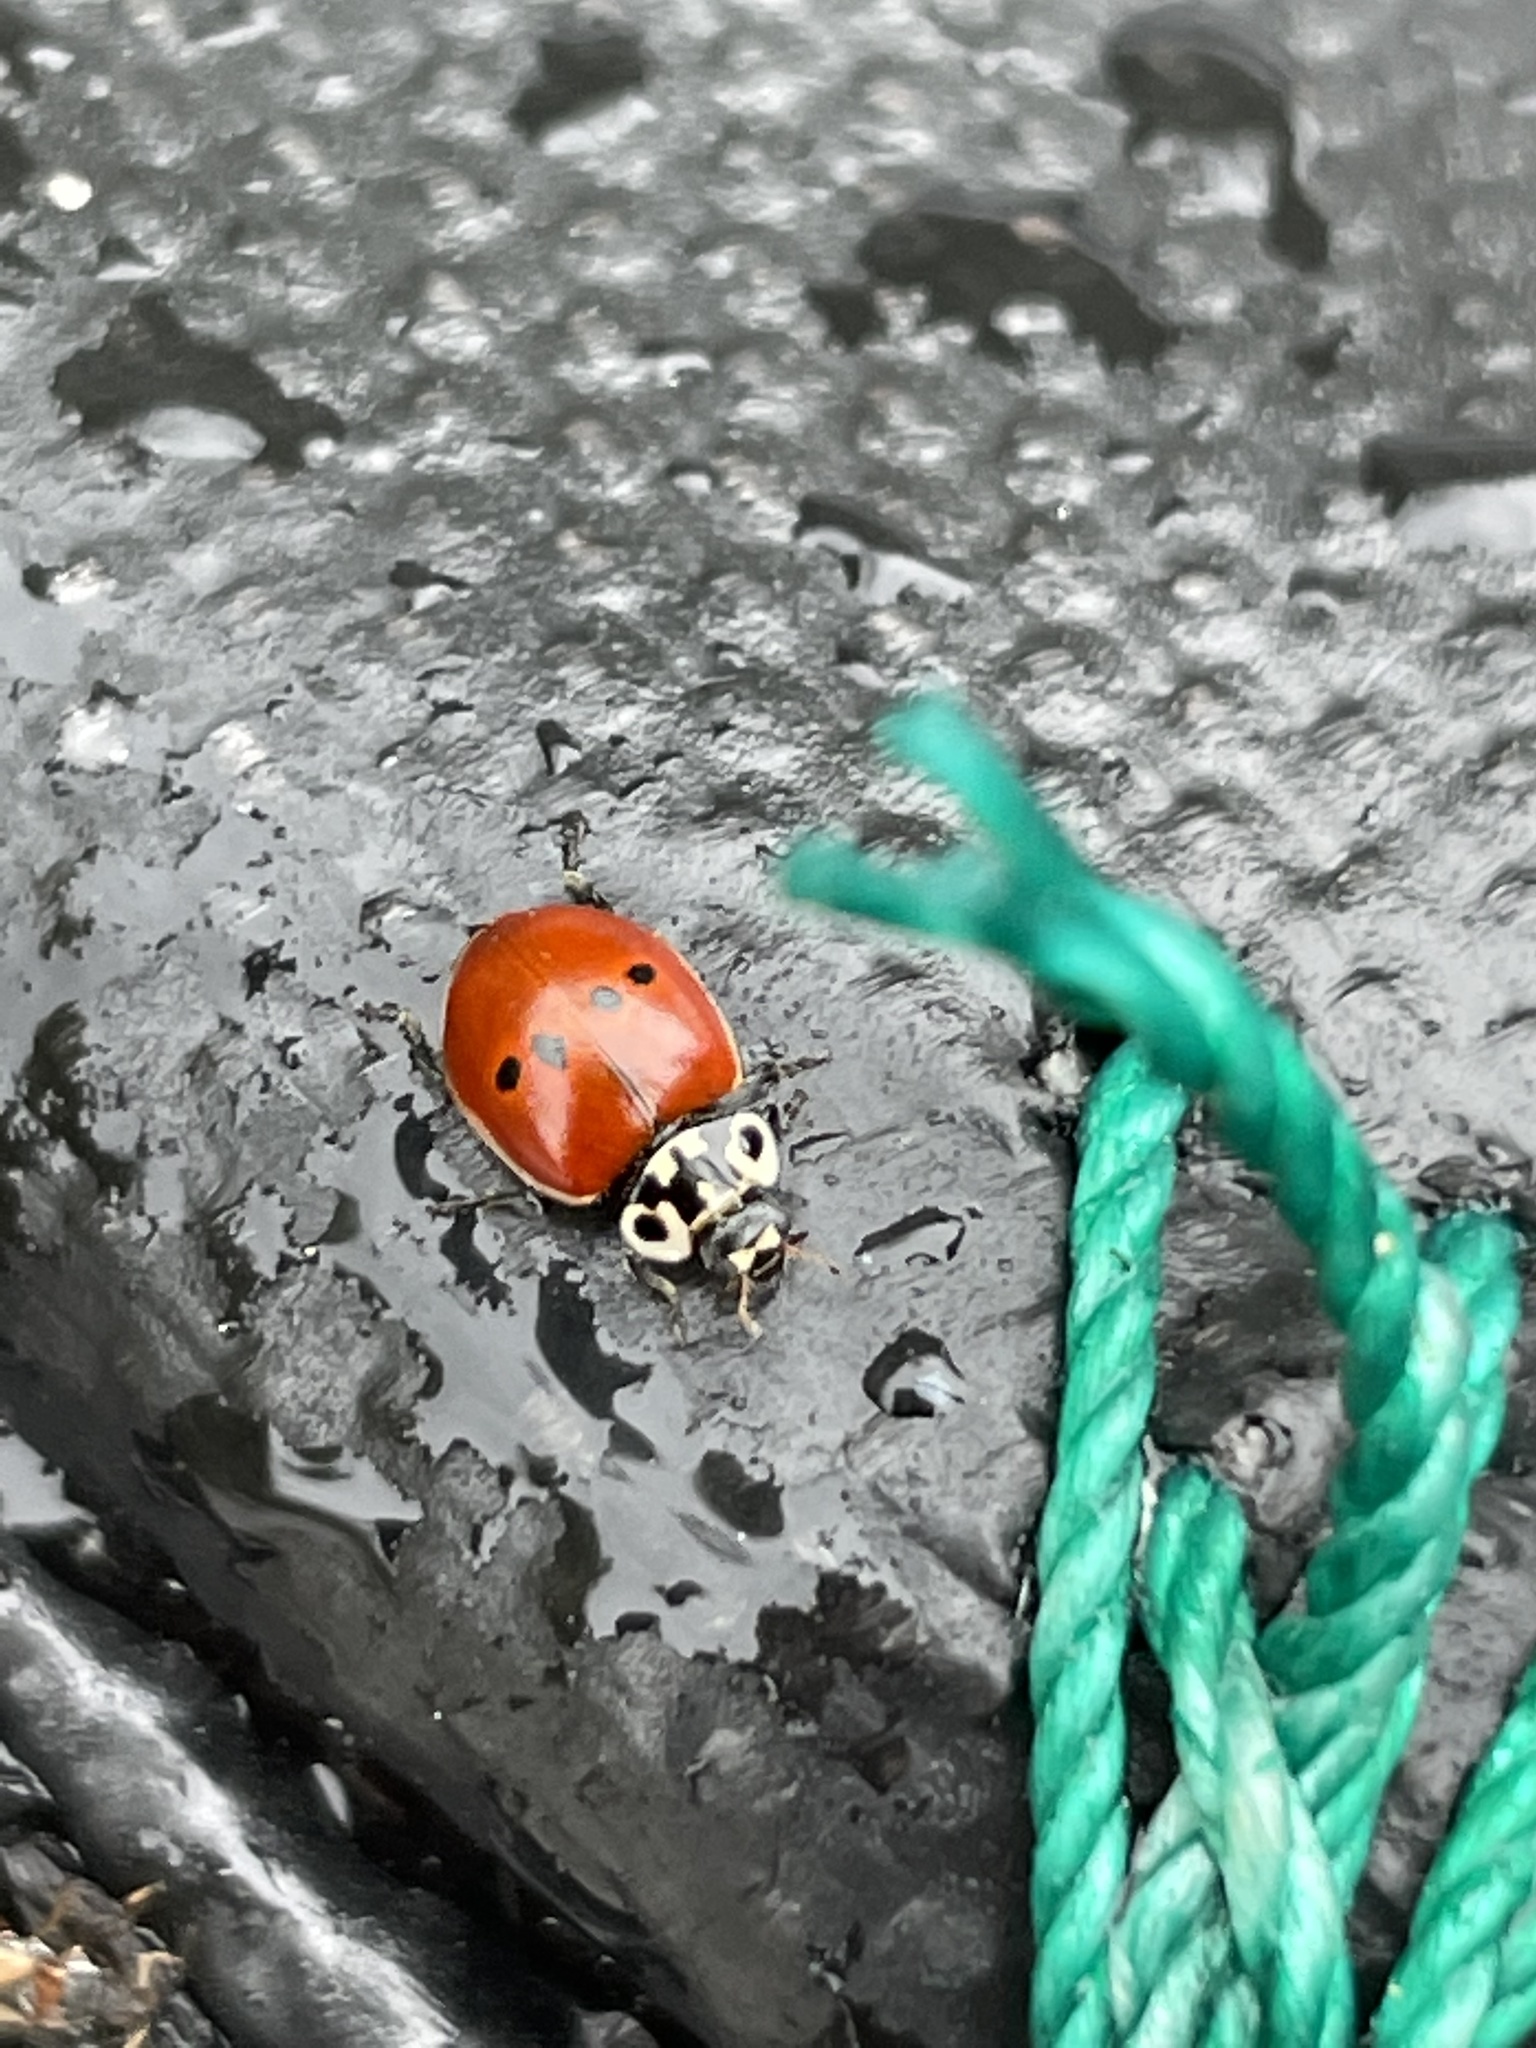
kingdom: Animalia
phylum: Arthropoda
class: Insecta
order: Coleoptera
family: Coccinellidae
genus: Adalia
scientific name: Adalia bipunctata
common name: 2-spot ladybird
